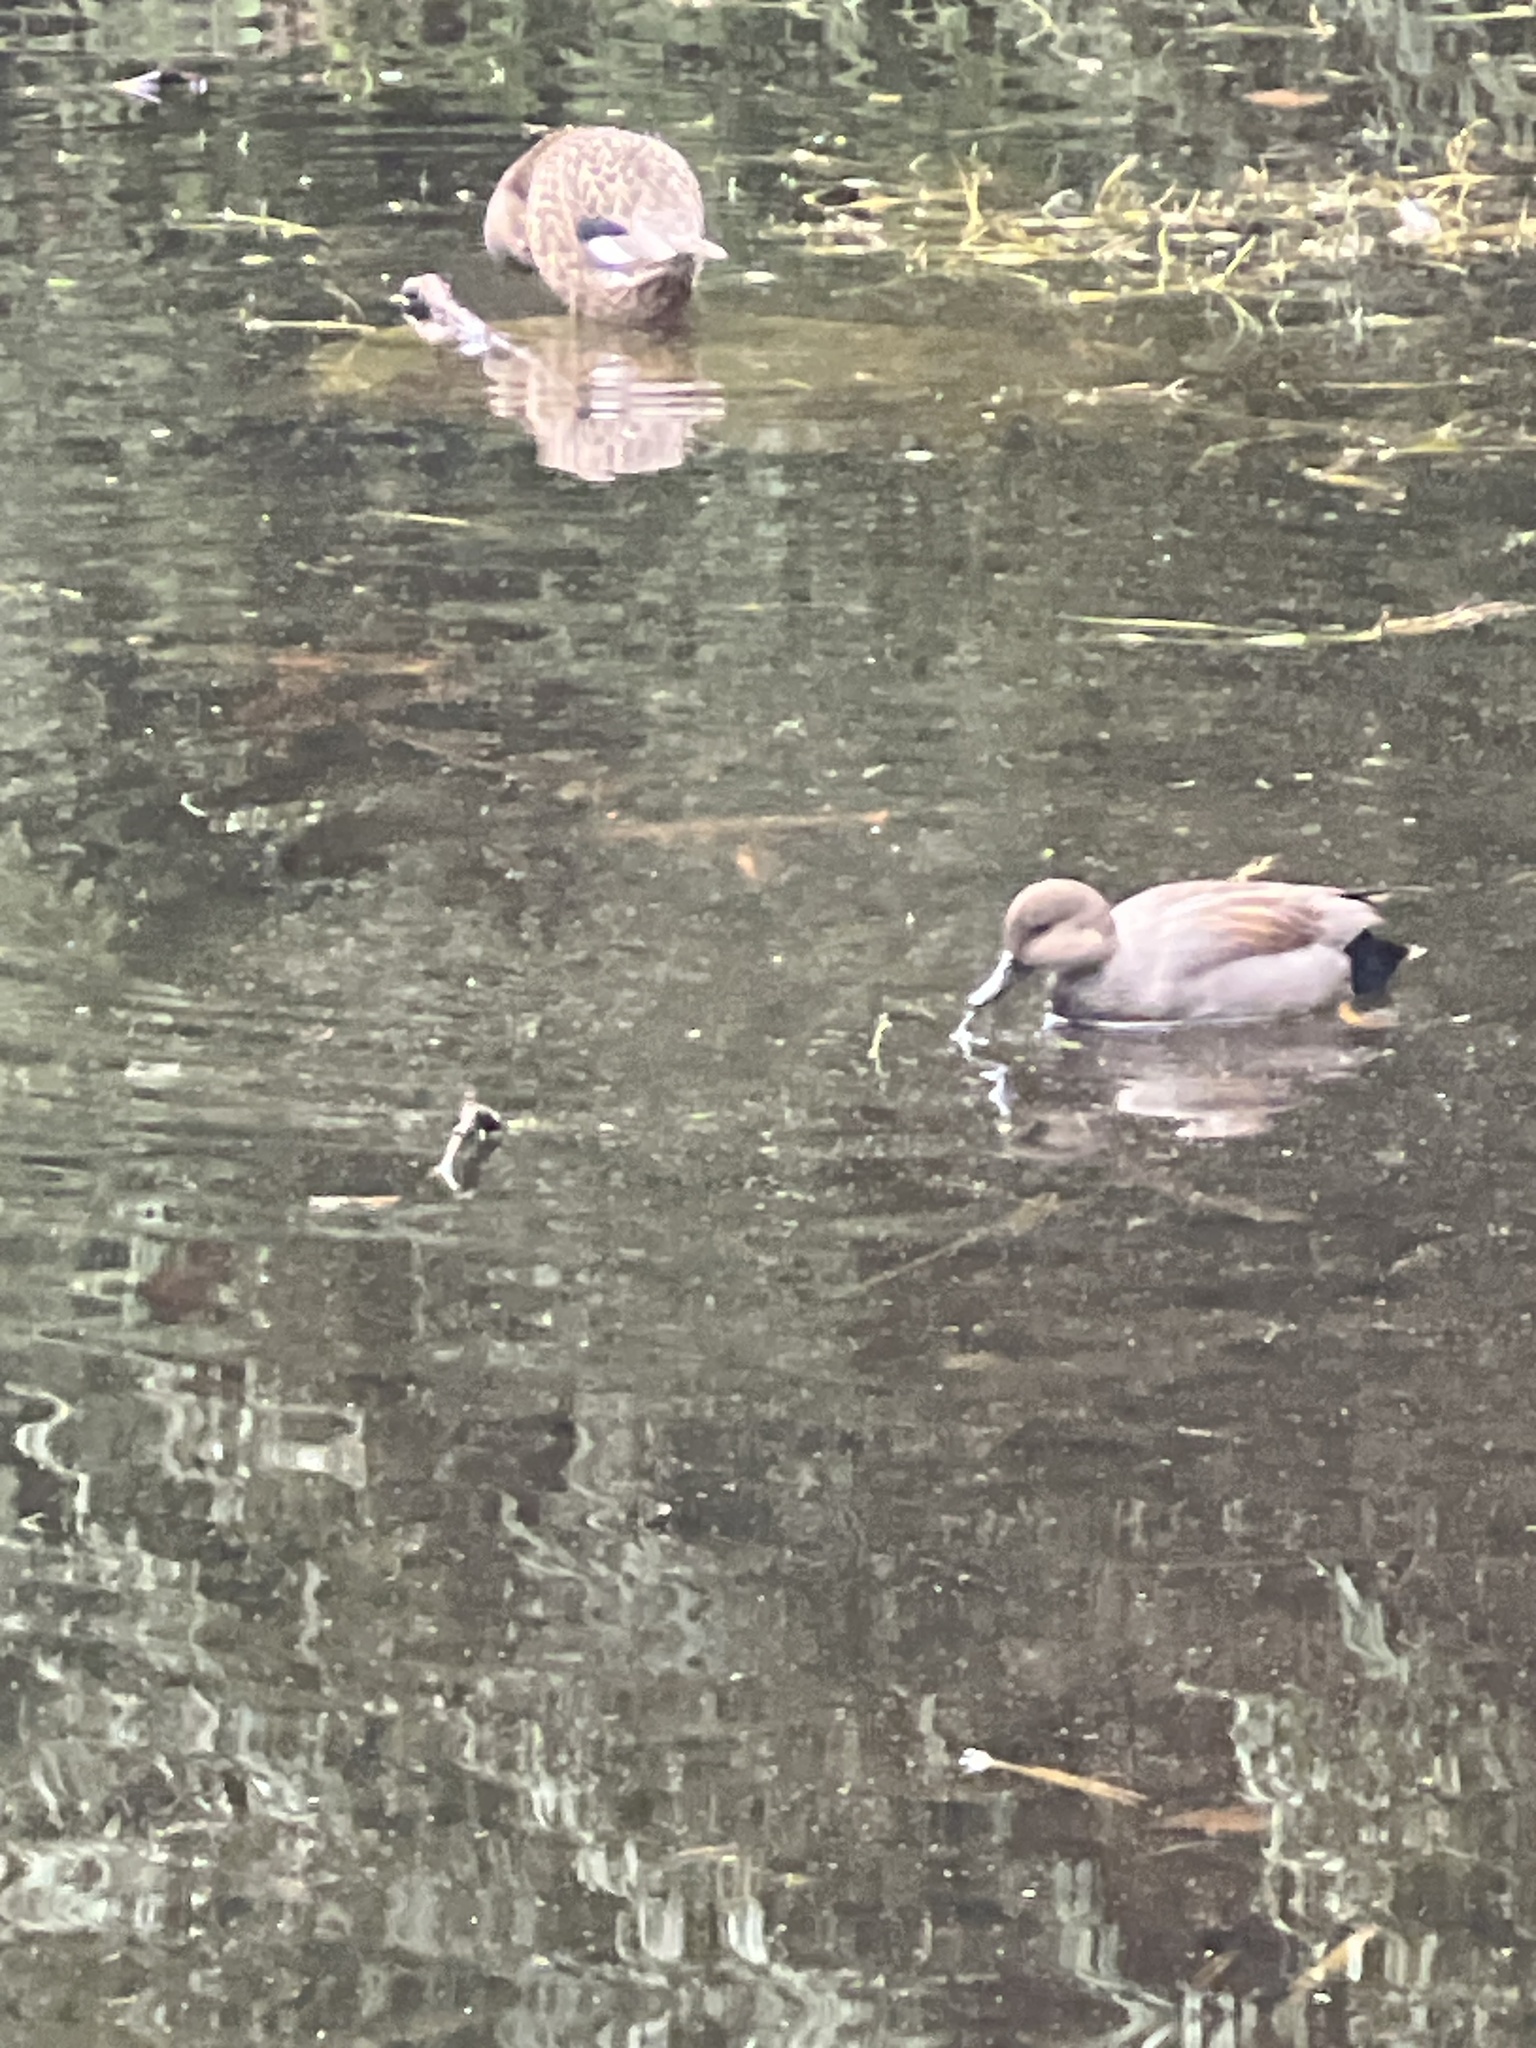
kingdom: Animalia
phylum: Chordata
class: Aves
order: Anseriformes
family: Anatidae
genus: Mareca
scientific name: Mareca strepera
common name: Gadwall
